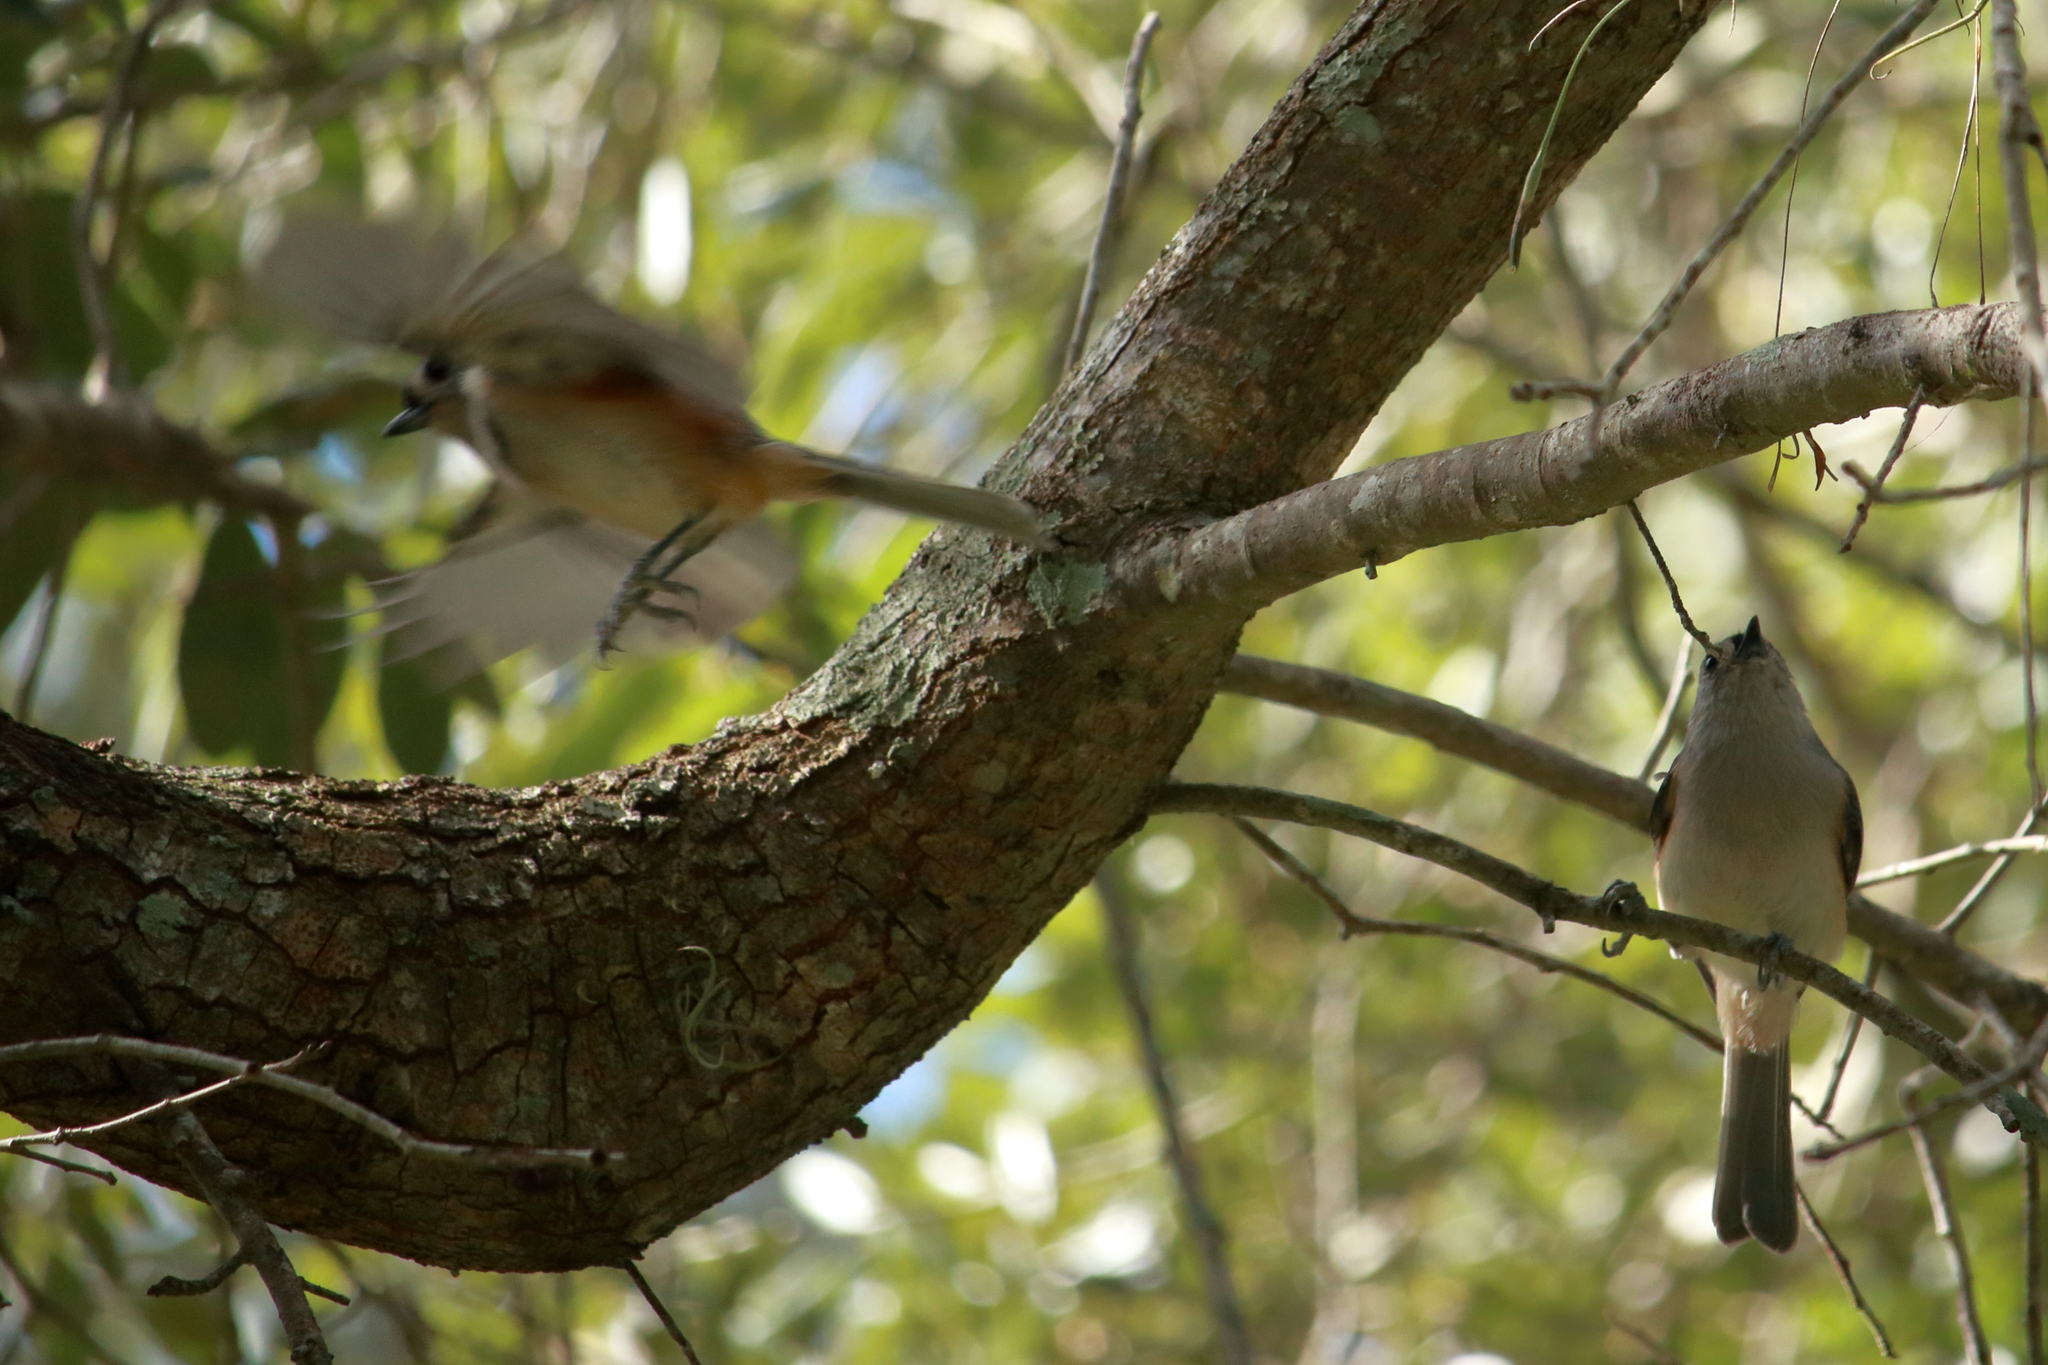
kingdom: Animalia
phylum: Chordata
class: Aves
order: Passeriformes
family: Paridae
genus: Baeolophus
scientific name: Baeolophus bicolor
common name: Tufted titmouse
